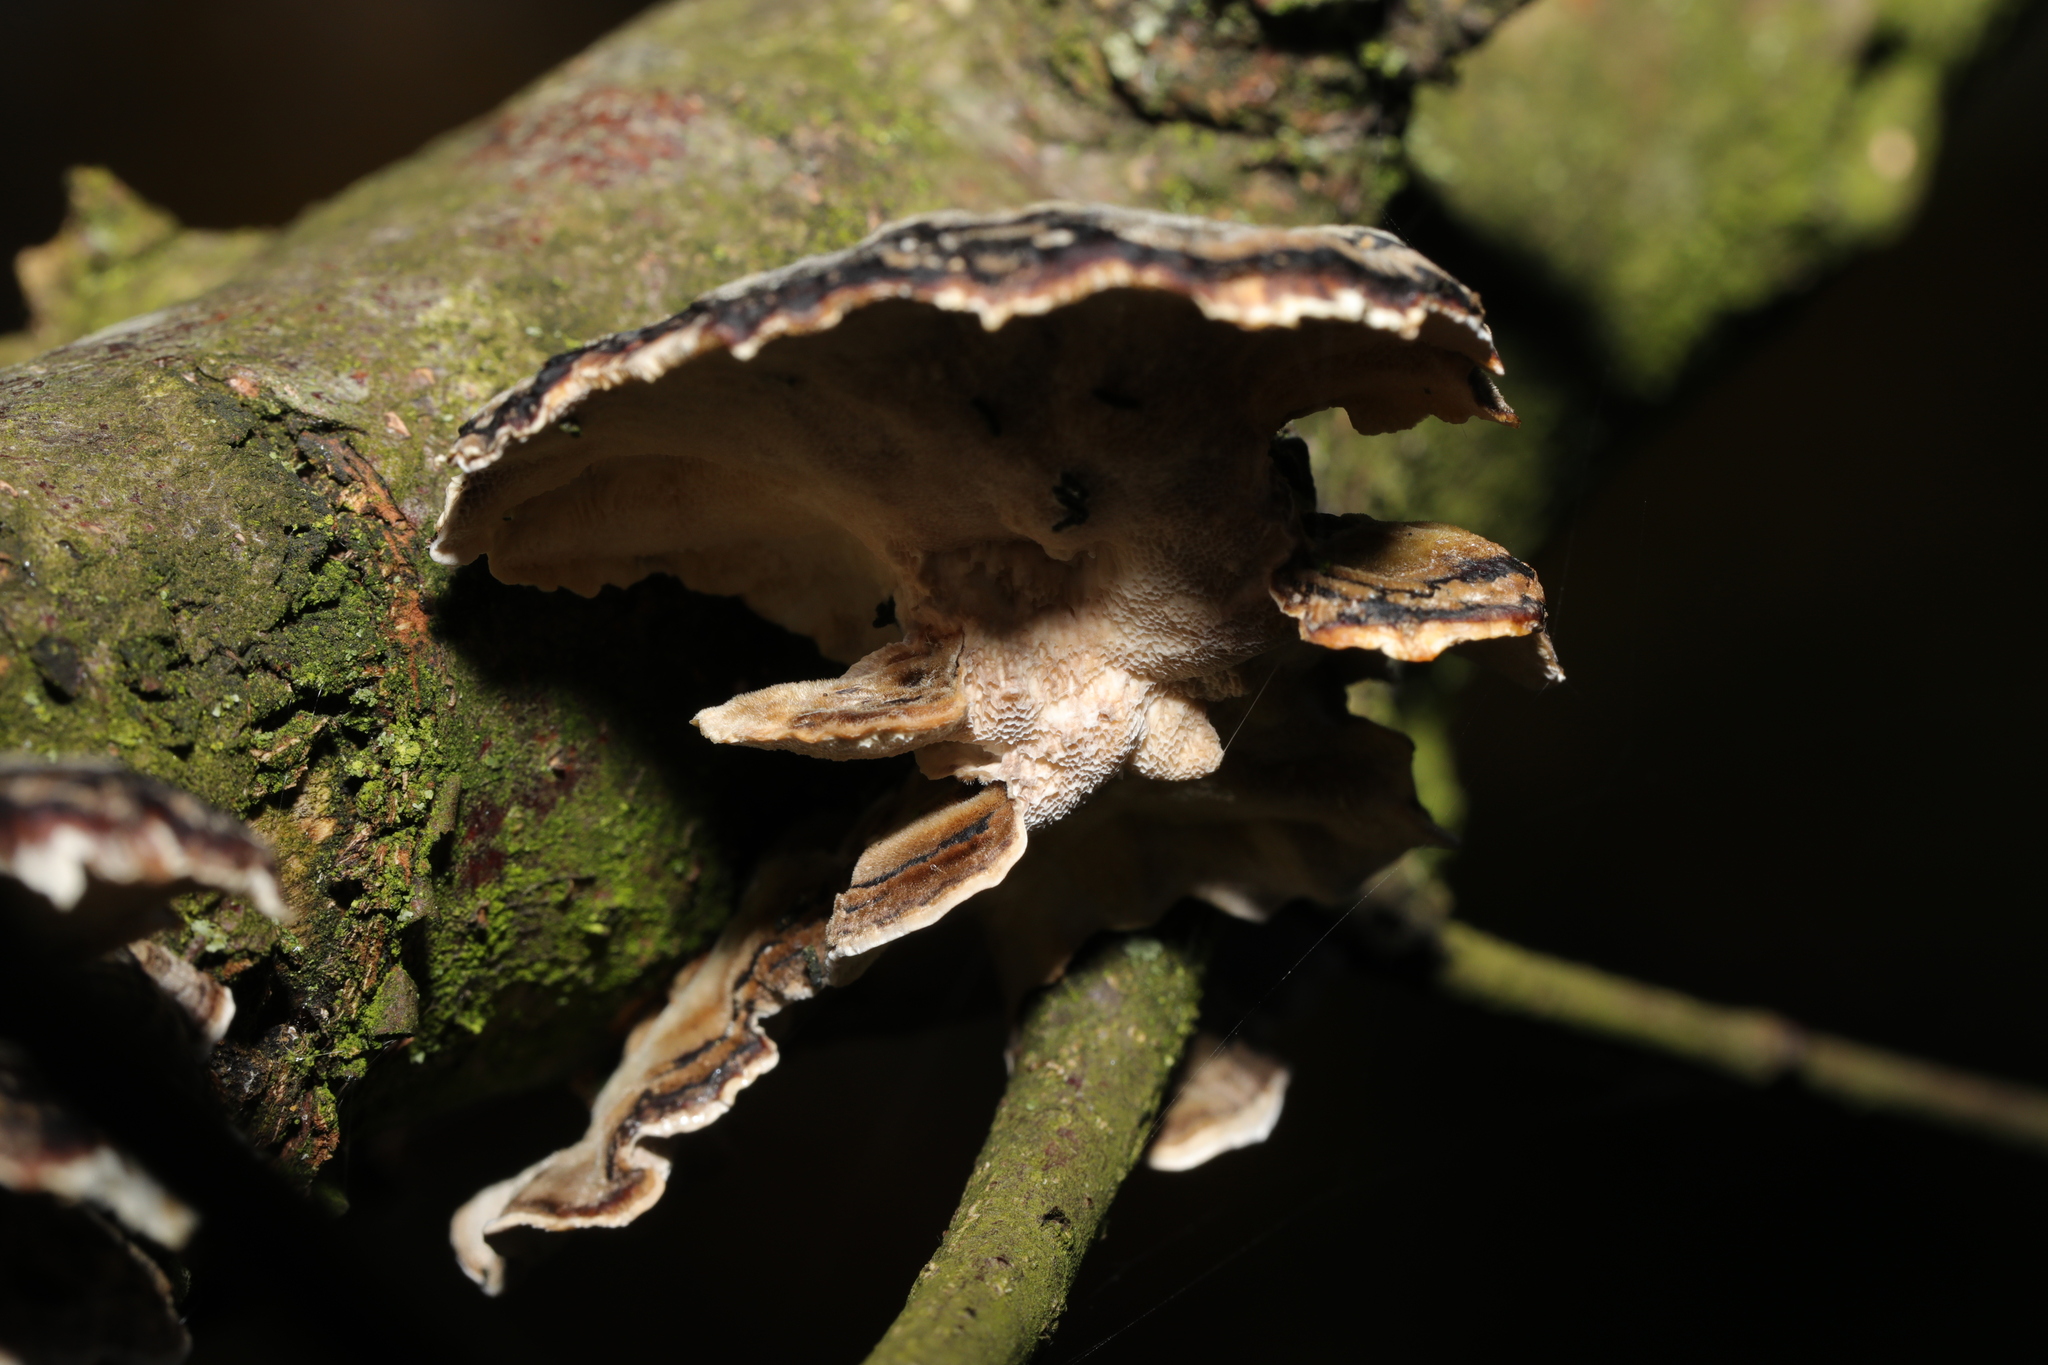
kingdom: Fungi
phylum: Basidiomycota
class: Agaricomycetes
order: Polyporales
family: Polyporaceae
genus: Trametes
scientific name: Trametes versicolor
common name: Turkeytail
